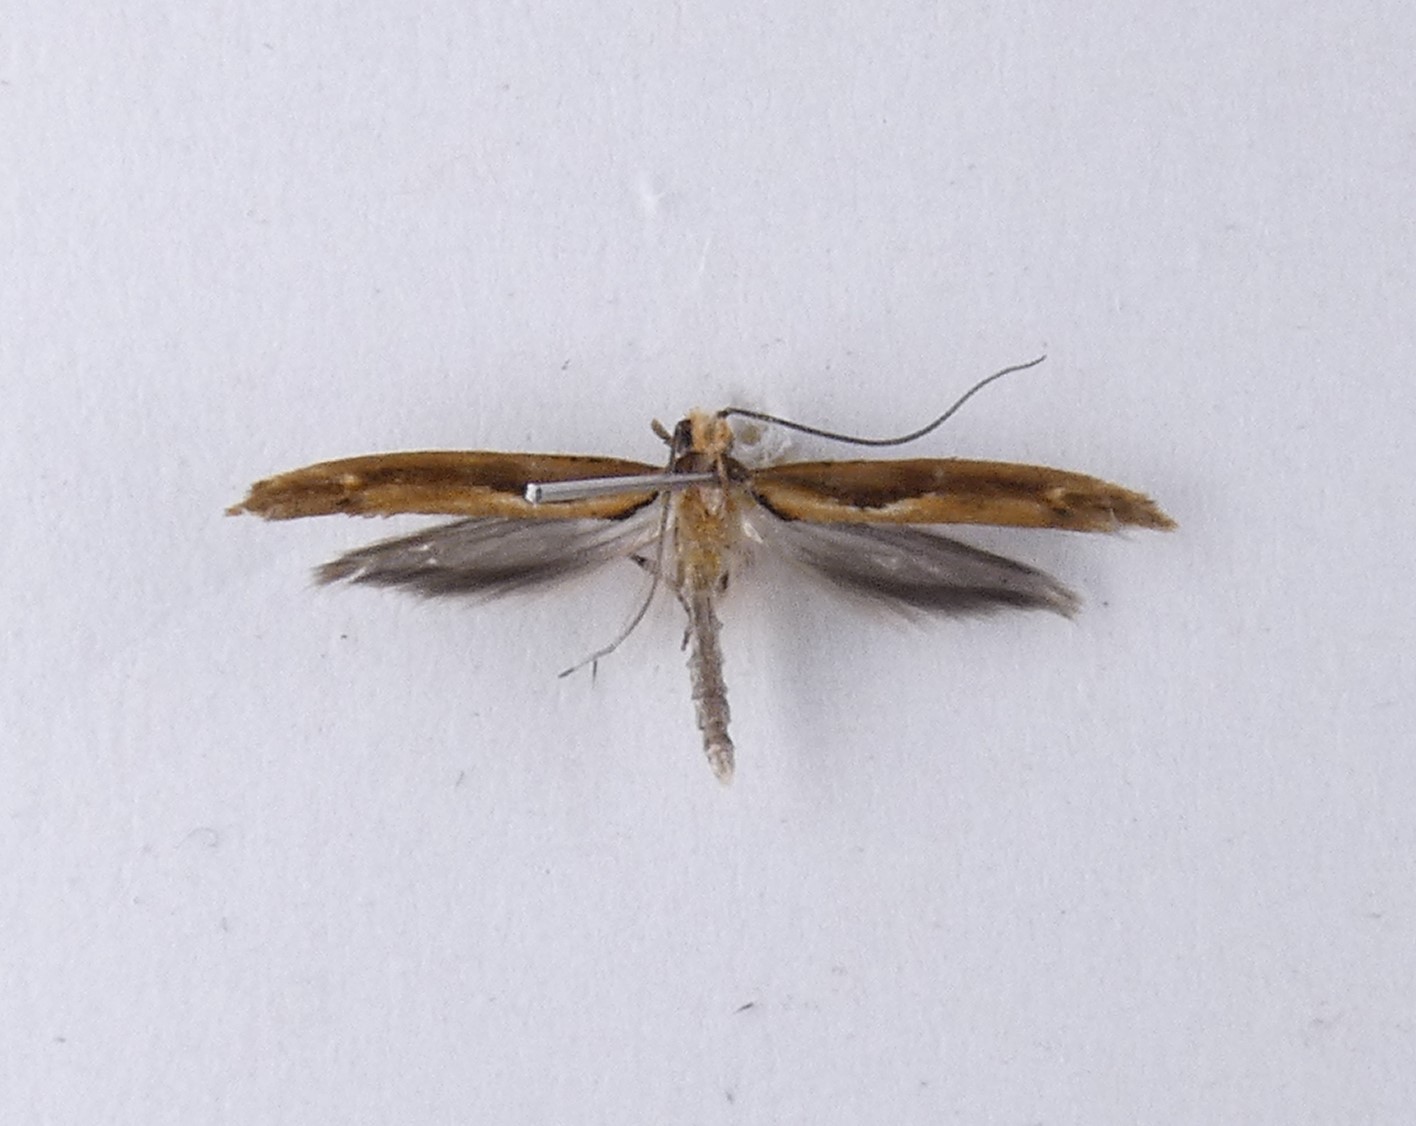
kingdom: Animalia
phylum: Arthropoda
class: Insecta
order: Lepidoptera
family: Depressariidae
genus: Eutorna
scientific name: Eutorna symmorpha
